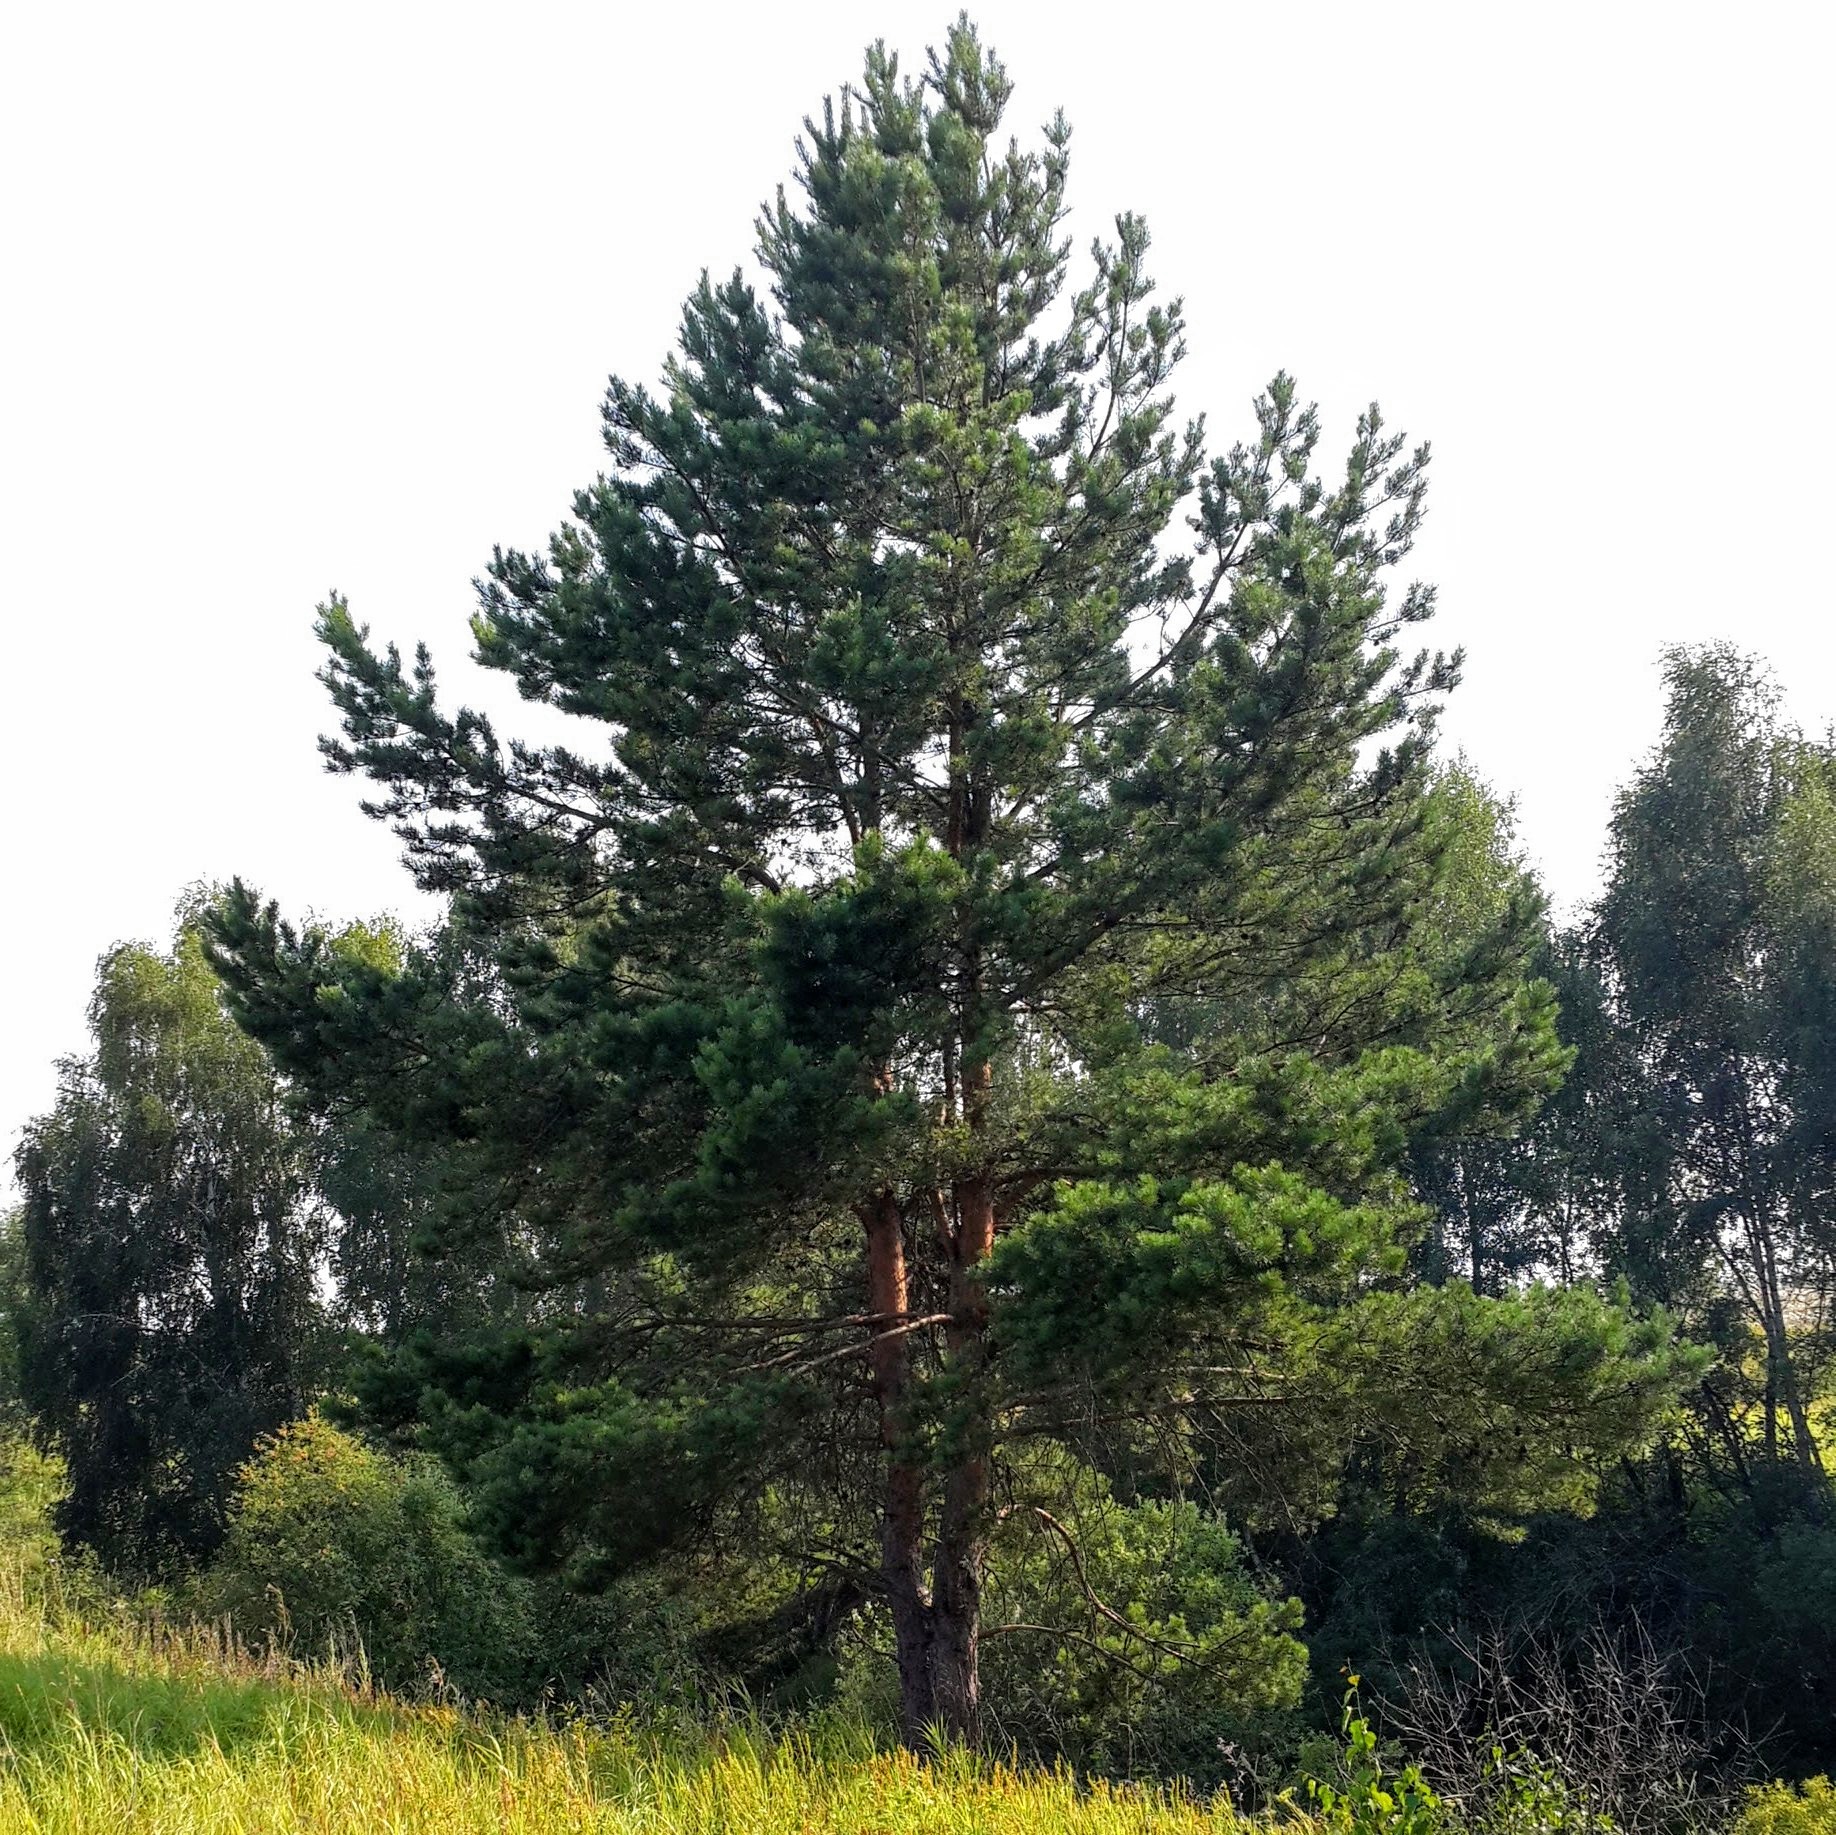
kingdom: Plantae
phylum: Tracheophyta
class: Pinopsida
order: Pinales
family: Pinaceae
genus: Pinus
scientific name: Pinus sylvestris
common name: Scots pine
